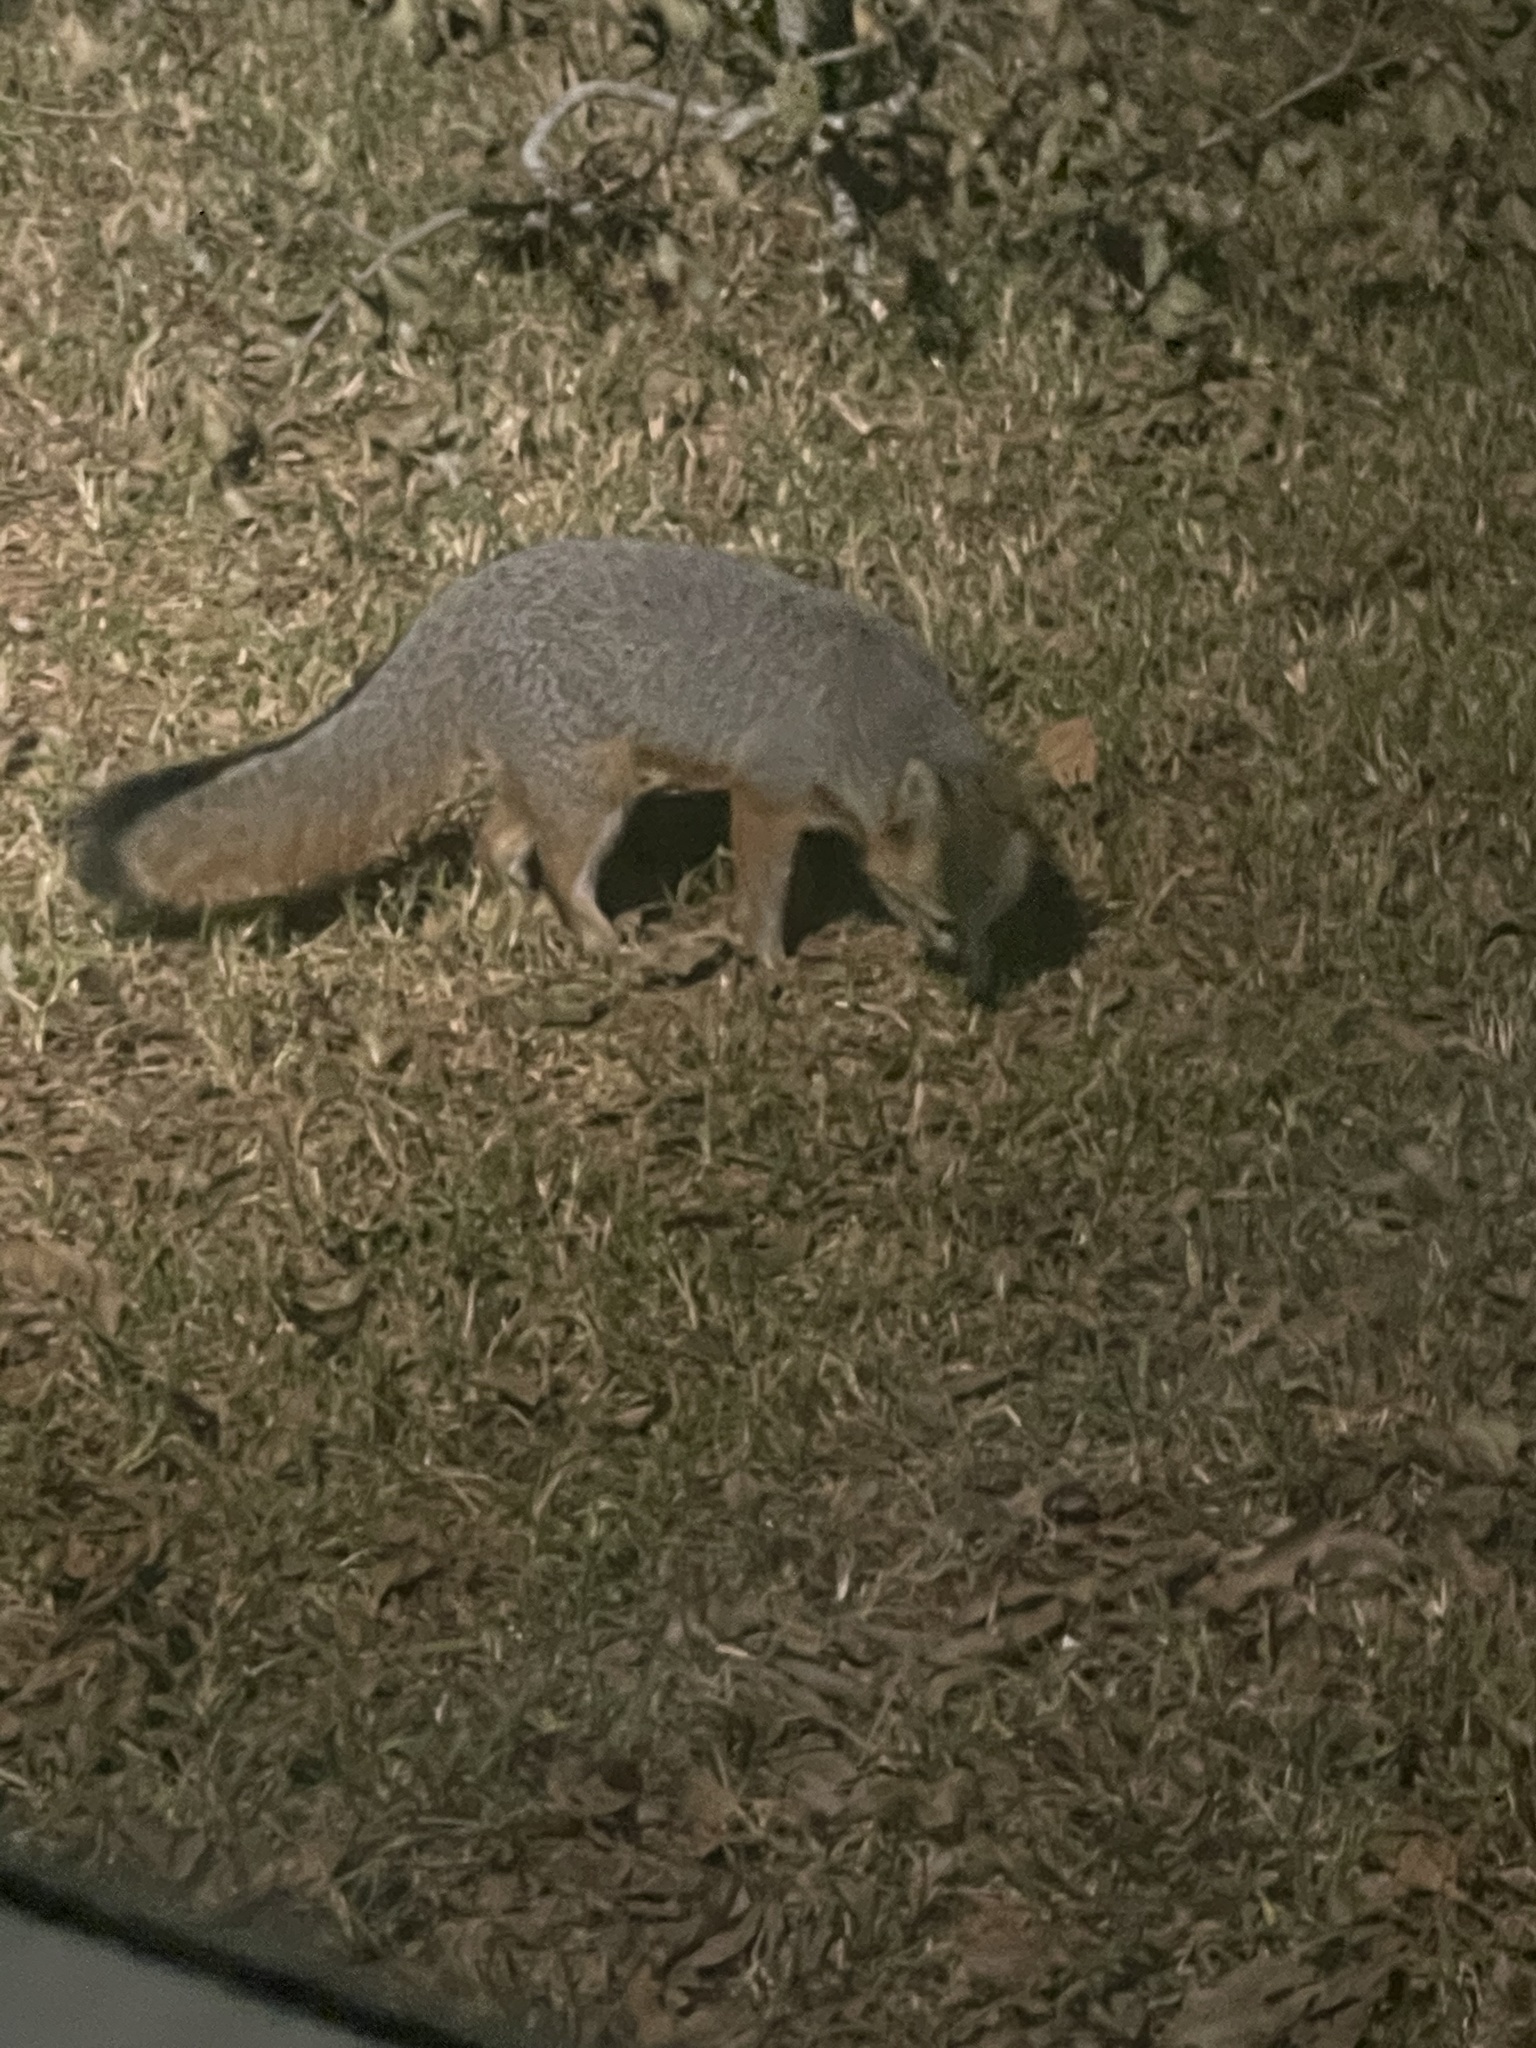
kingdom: Animalia
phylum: Chordata
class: Mammalia
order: Carnivora
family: Canidae
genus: Urocyon
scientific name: Urocyon cinereoargenteus
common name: Gray fox
